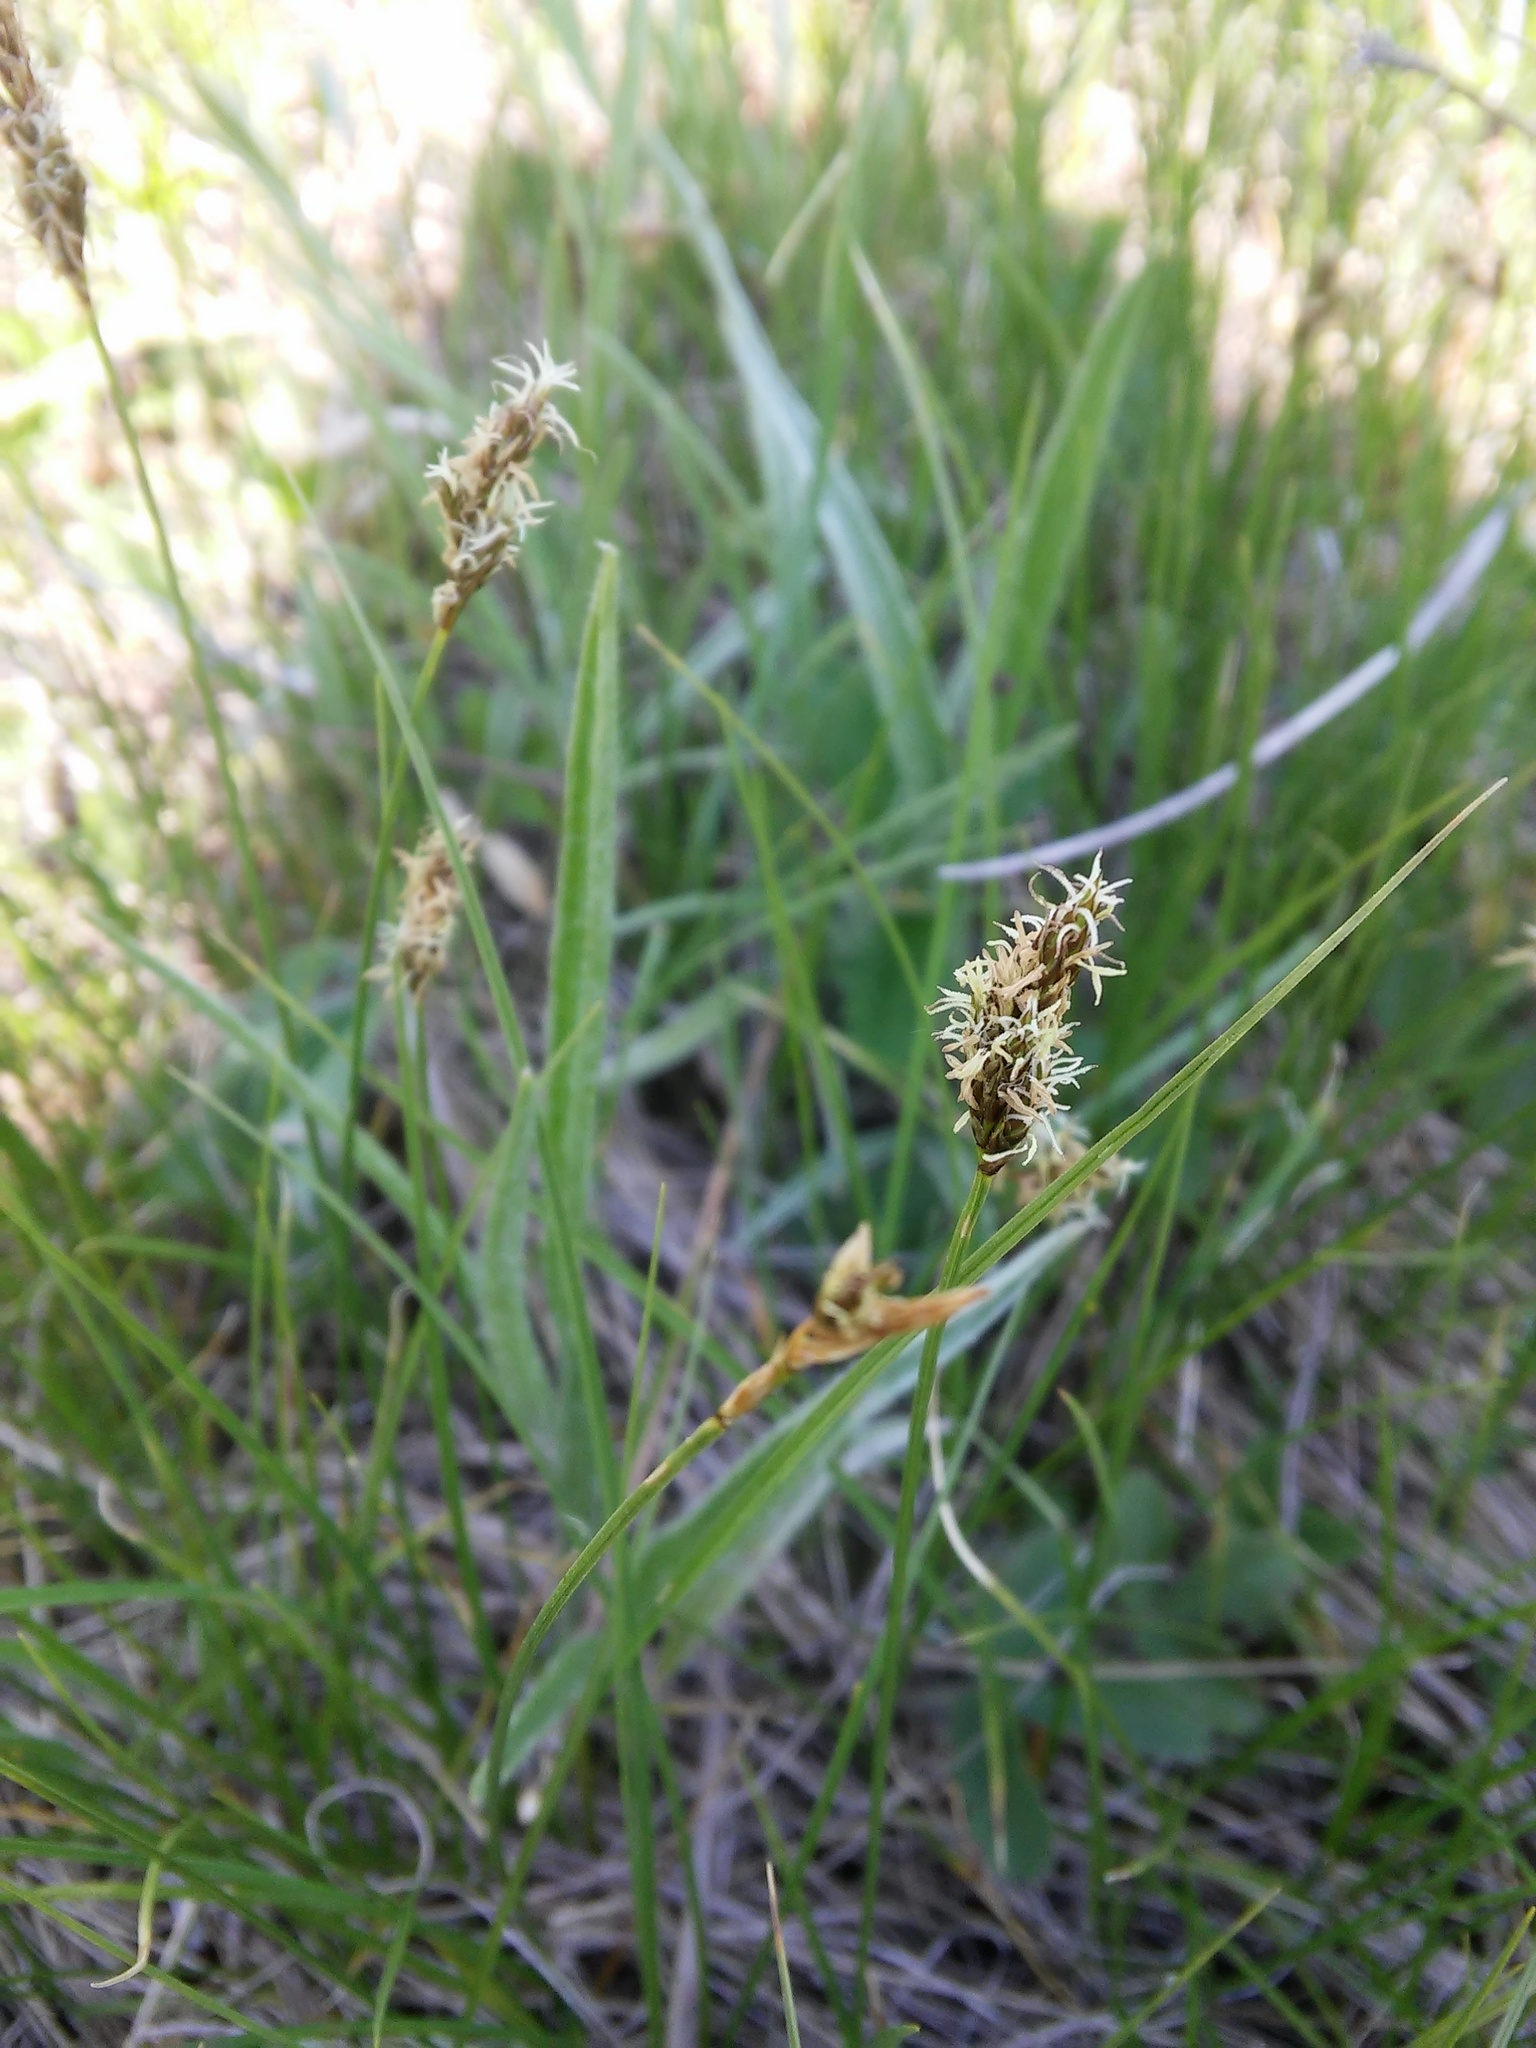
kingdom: Plantae
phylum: Tracheophyta
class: Liliopsida
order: Poales
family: Cyperaceae
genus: Carex
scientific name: Carex praecox
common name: Early sedge
